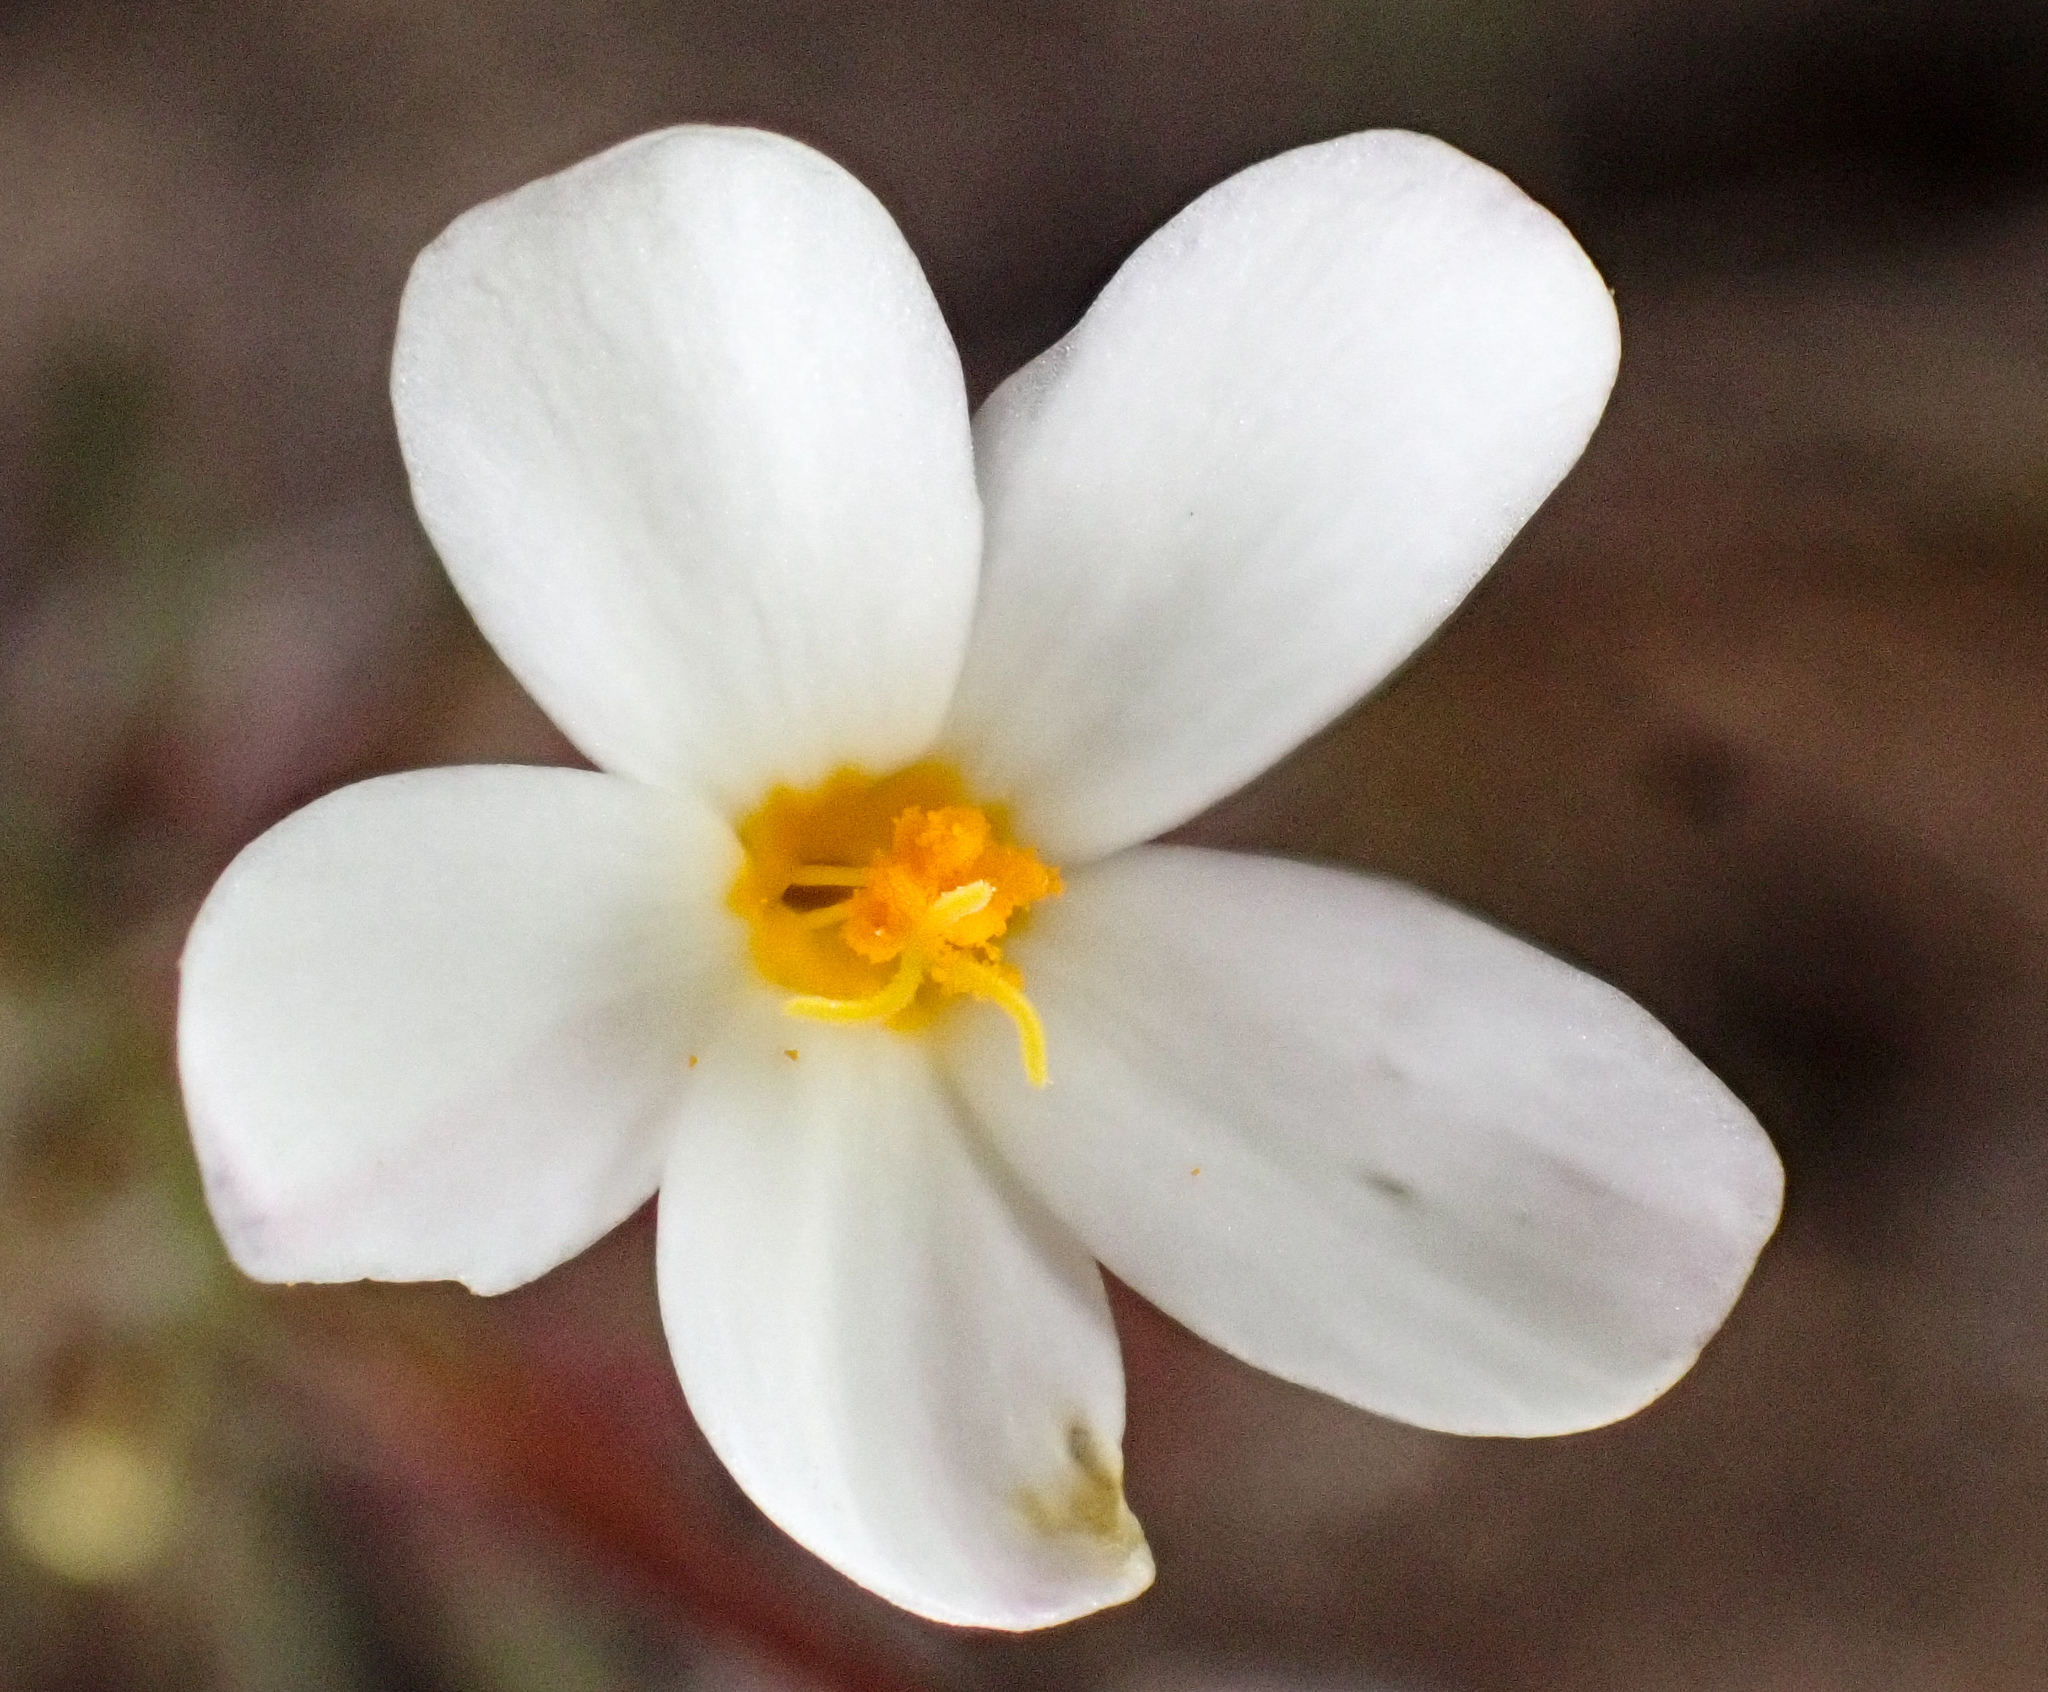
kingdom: Plantae
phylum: Tracheophyta
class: Magnoliopsida
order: Ericales
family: Polemoniaceae
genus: Leptosiphon
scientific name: Leptosiphon parviflorus
